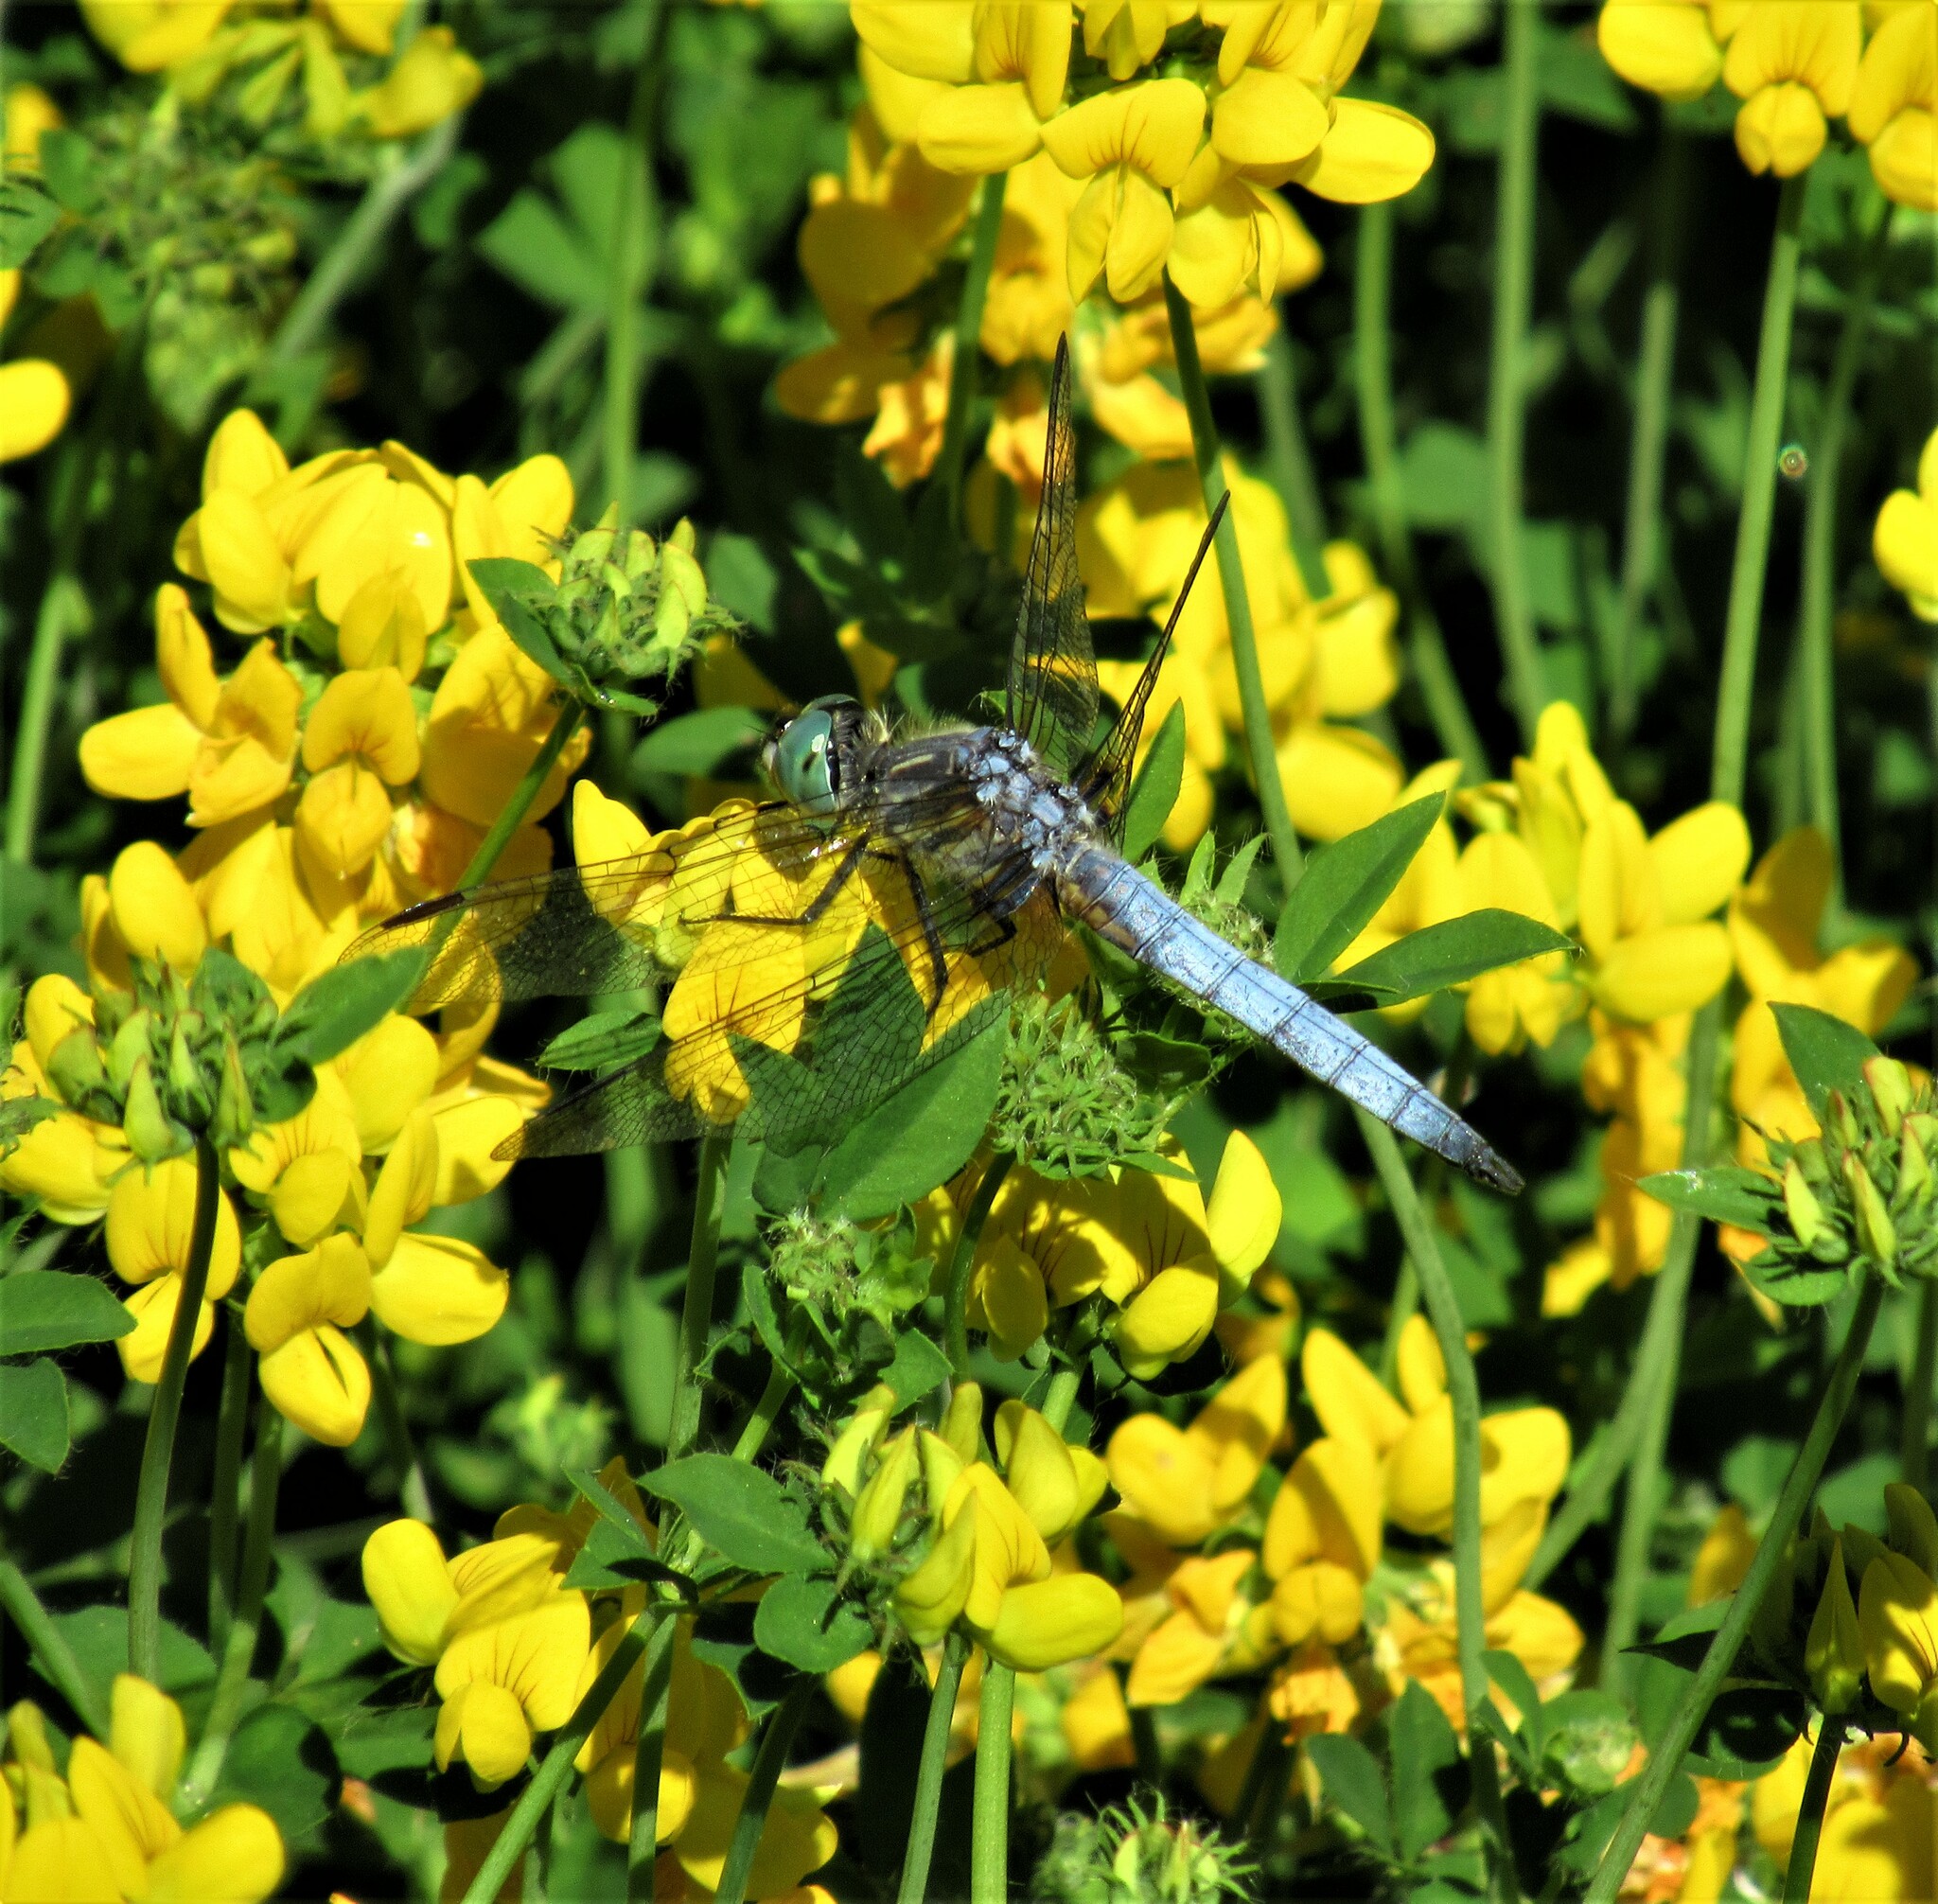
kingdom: Animalia
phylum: Arthropoda
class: Insecta
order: Odonata
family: Libellulidae
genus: Pachydiplax
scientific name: Pachydiplax longipennis
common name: Blue dasher
